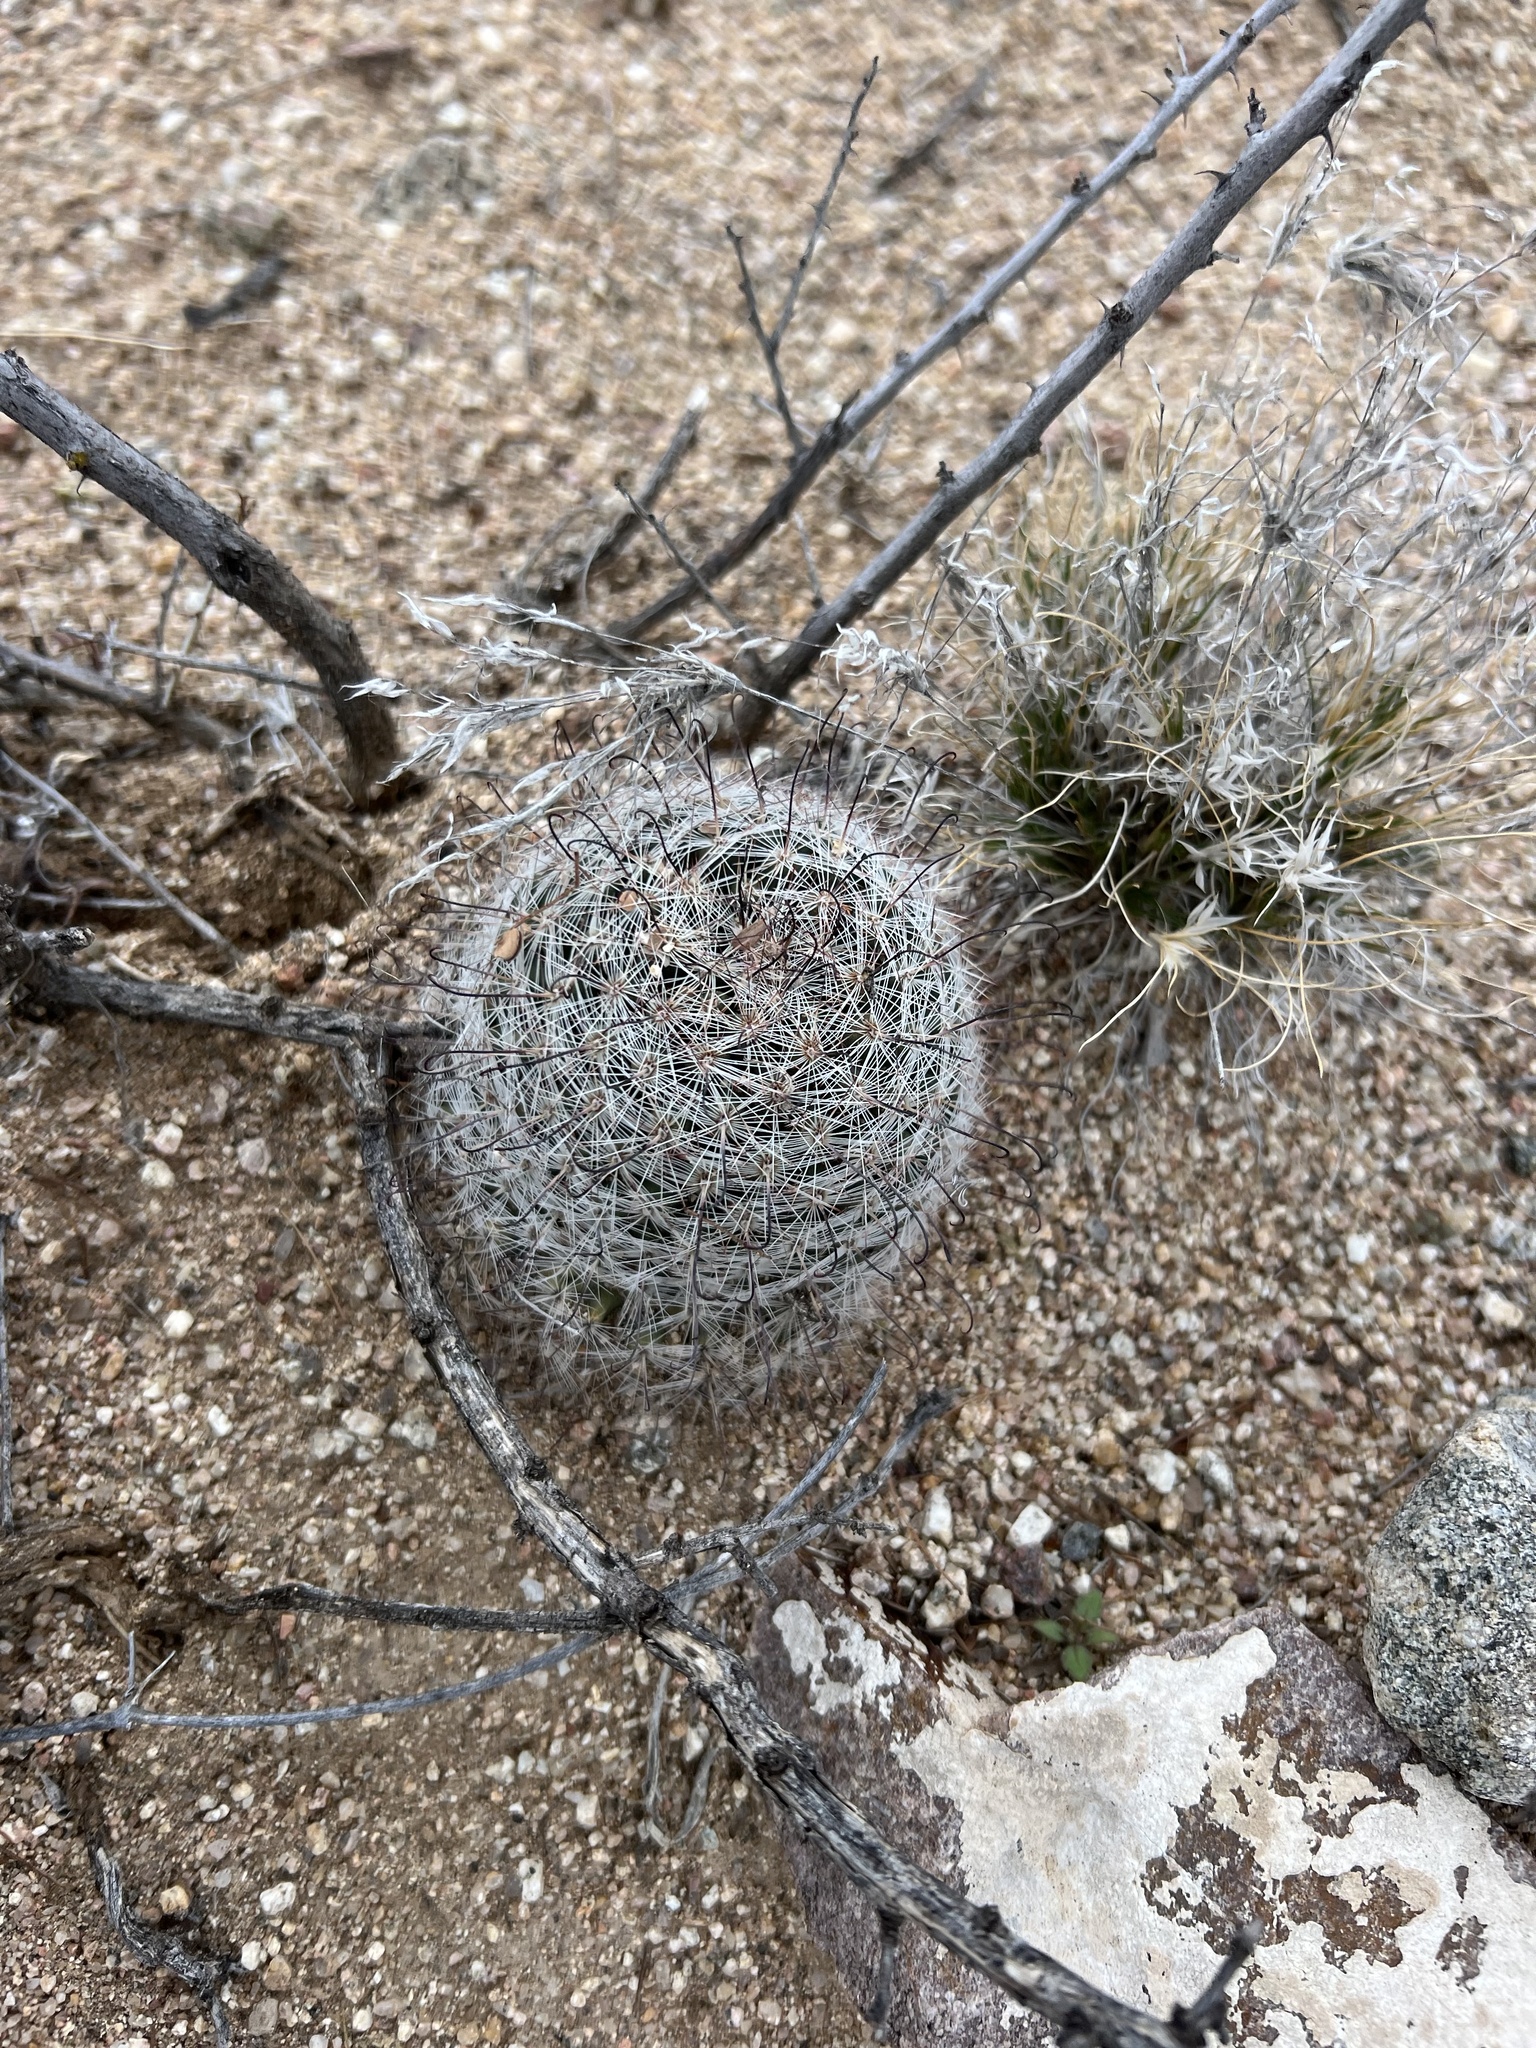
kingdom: Plantae
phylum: Tracheophyta
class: Magnoliopsida
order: Caryophyllales
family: Cactaceae
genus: Cochemiea
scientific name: Cochemiea grahamii
